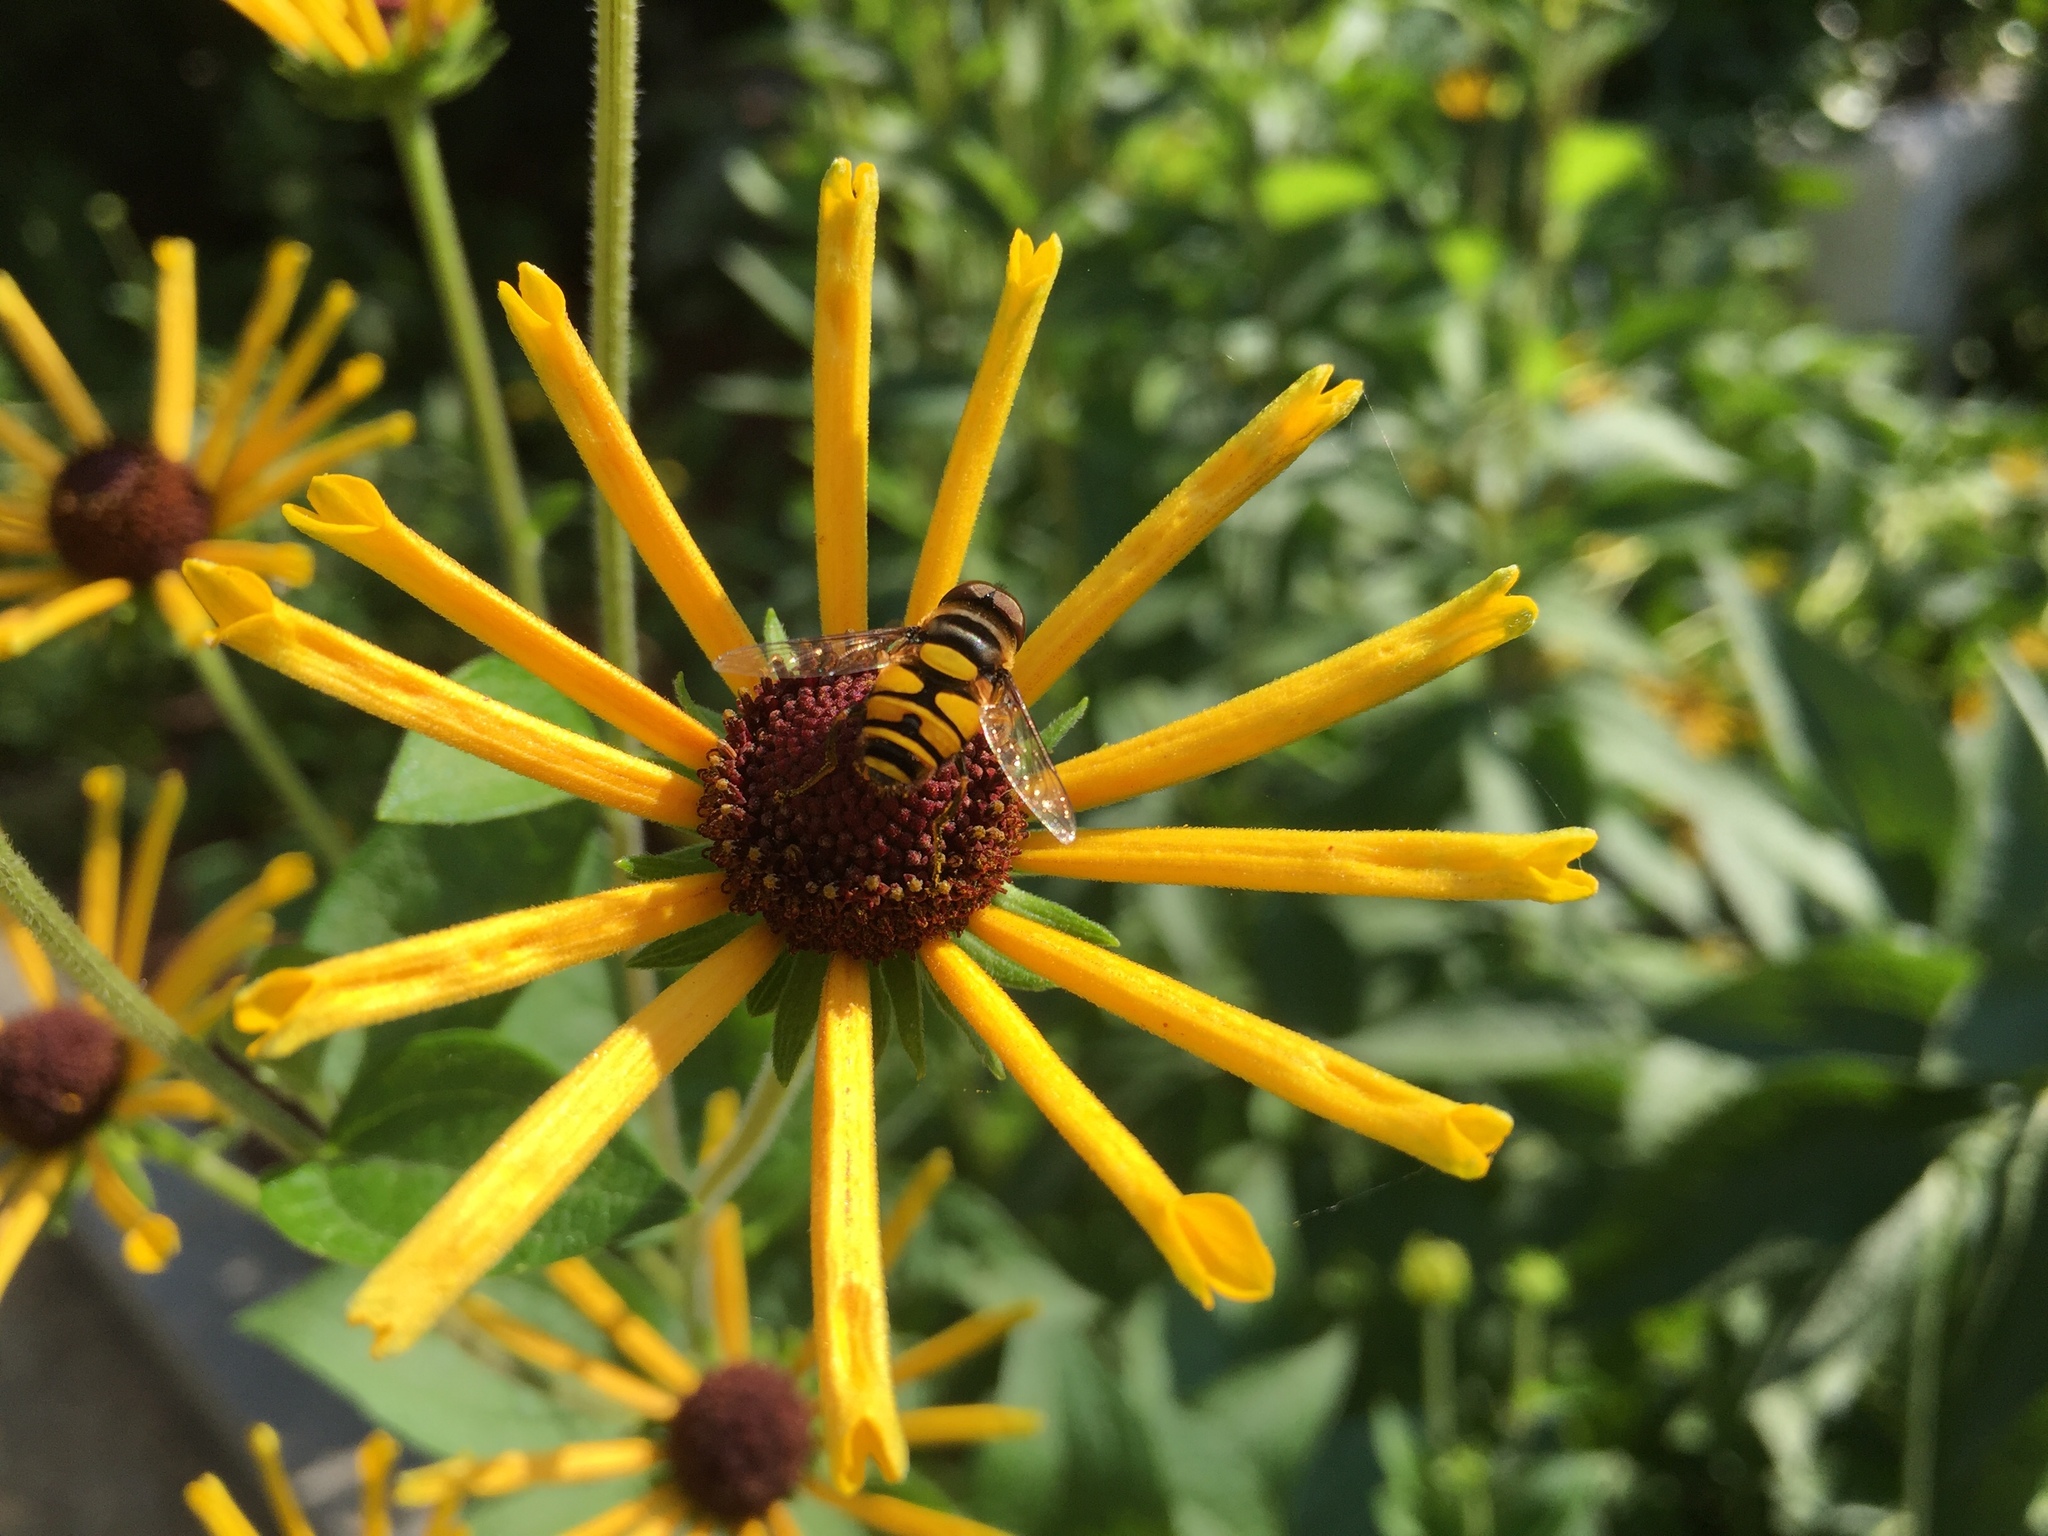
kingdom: Animalia
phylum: Arthropoda
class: Insecta
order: Diptera
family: Syrphidae
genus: Eristalis
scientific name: Eristalis transversa
